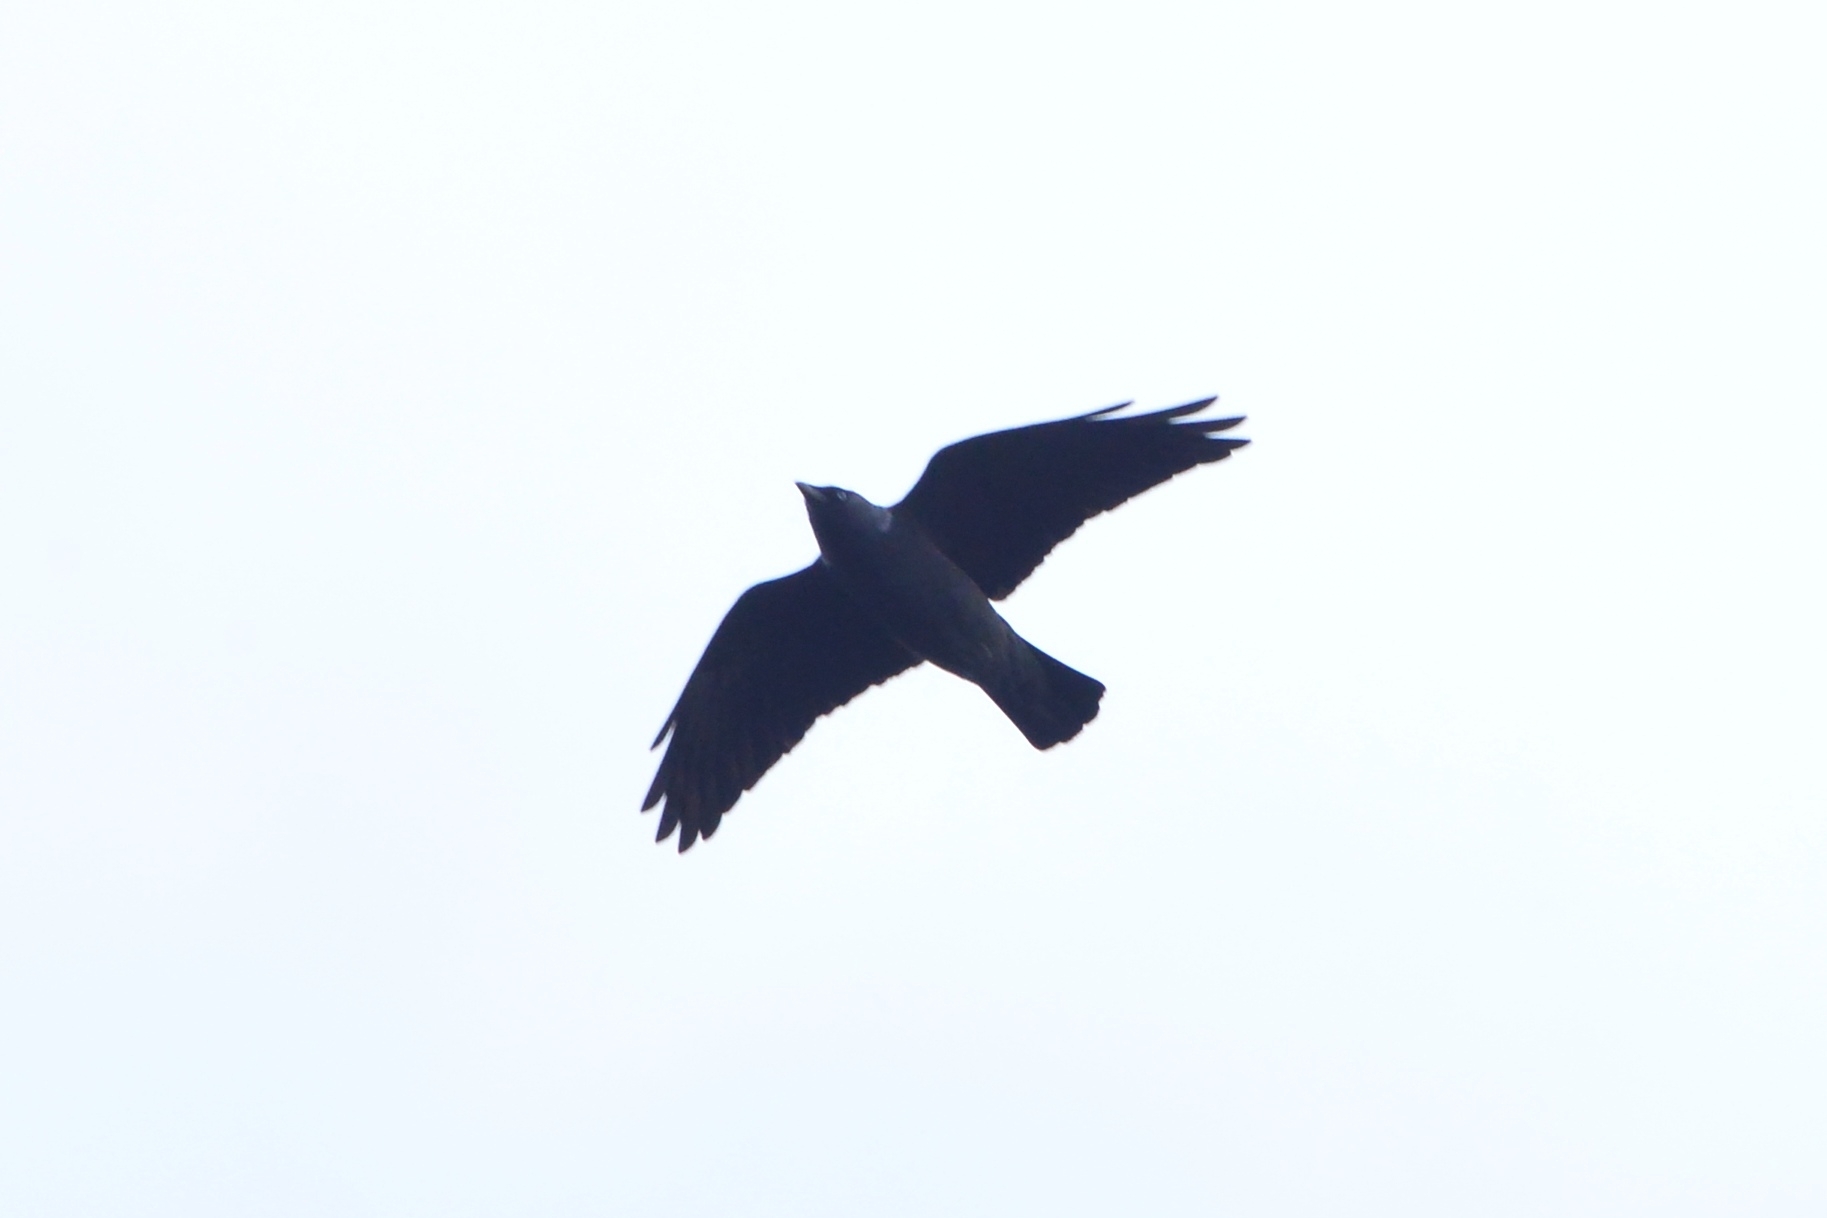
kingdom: Animalia
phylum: Chordata
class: Aves
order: Passeriformes
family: Corvidae
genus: Coloeus
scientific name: Coloeus monedula
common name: Western jackdaw
